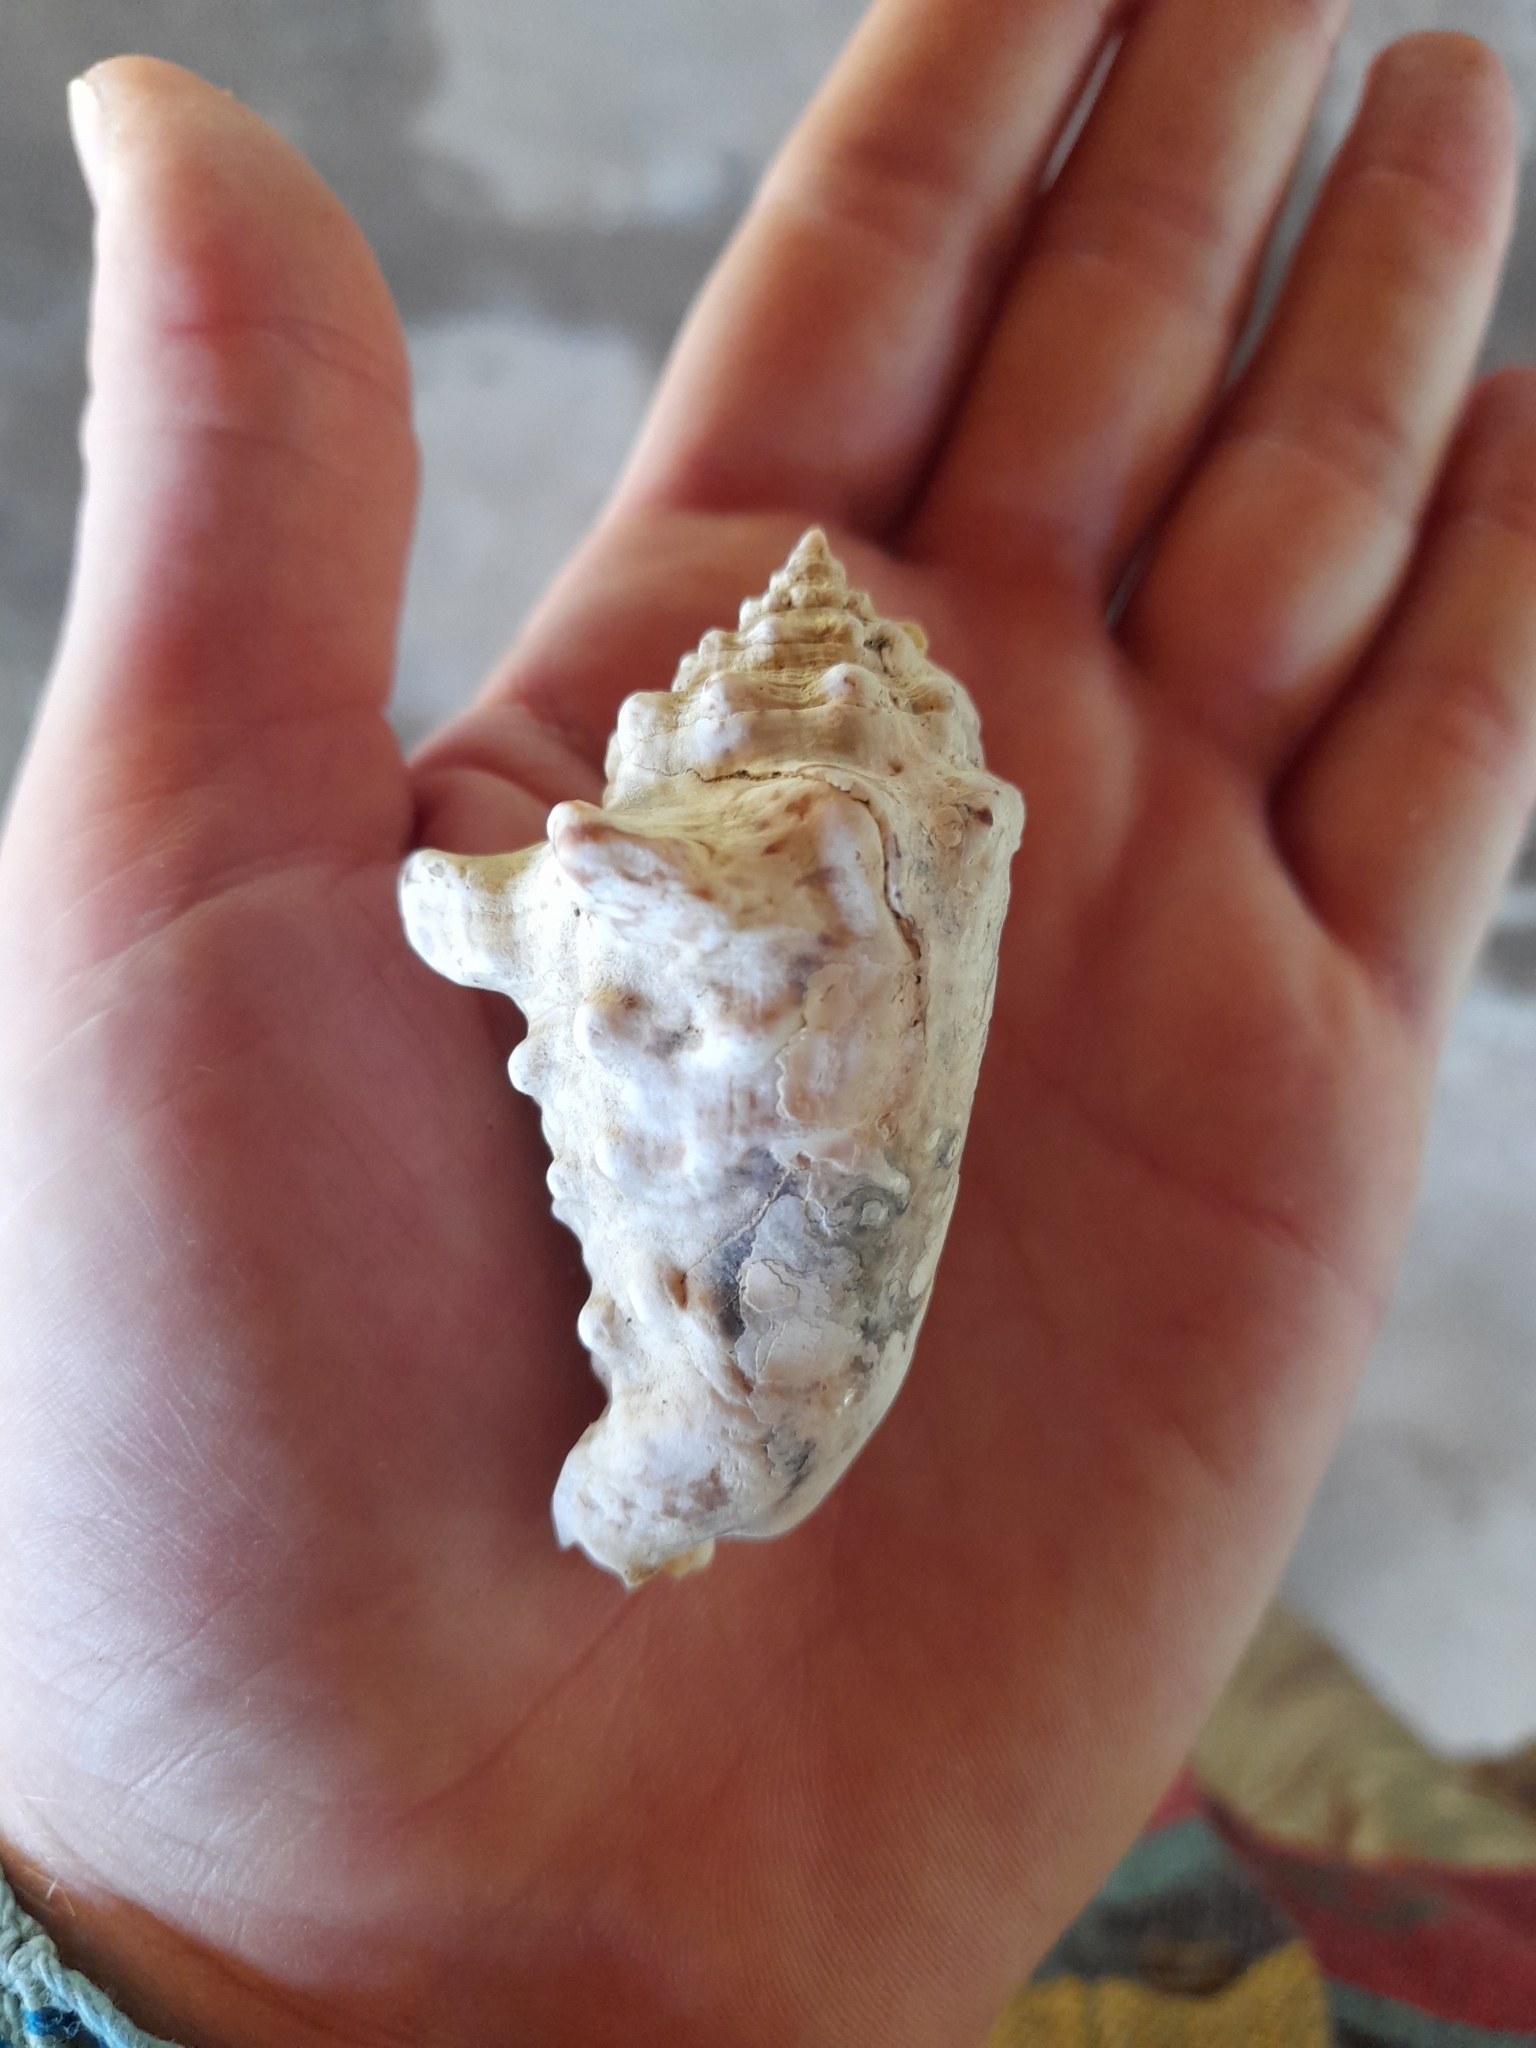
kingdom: Animalia
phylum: Mollusca
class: Gastropoda
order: Littorinimorpha
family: Strombidae
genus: Lentigo
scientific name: Lentigo lentiginosus
